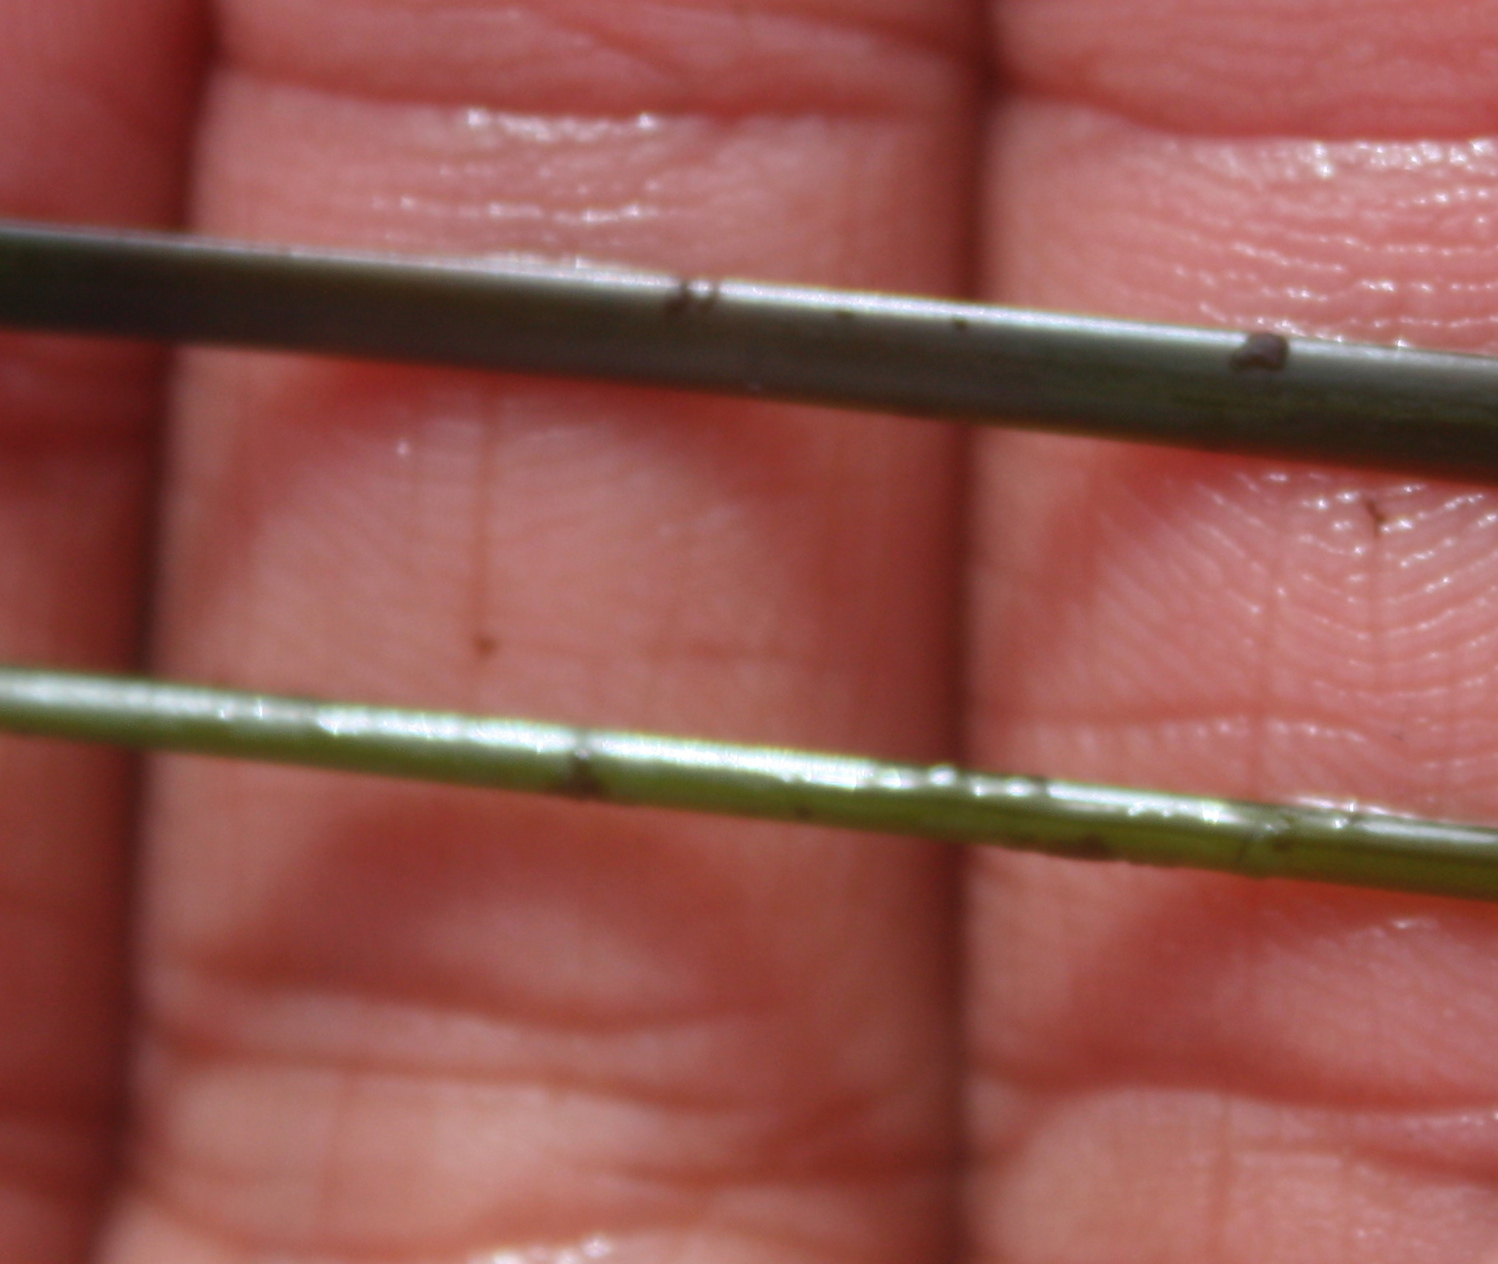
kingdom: Plantae
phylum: Tracheophyta
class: Liliopsida
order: Alismatales
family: Zosteraceae
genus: Phyllospadix
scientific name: Phyllospadix torreyi
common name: Surfgrass
